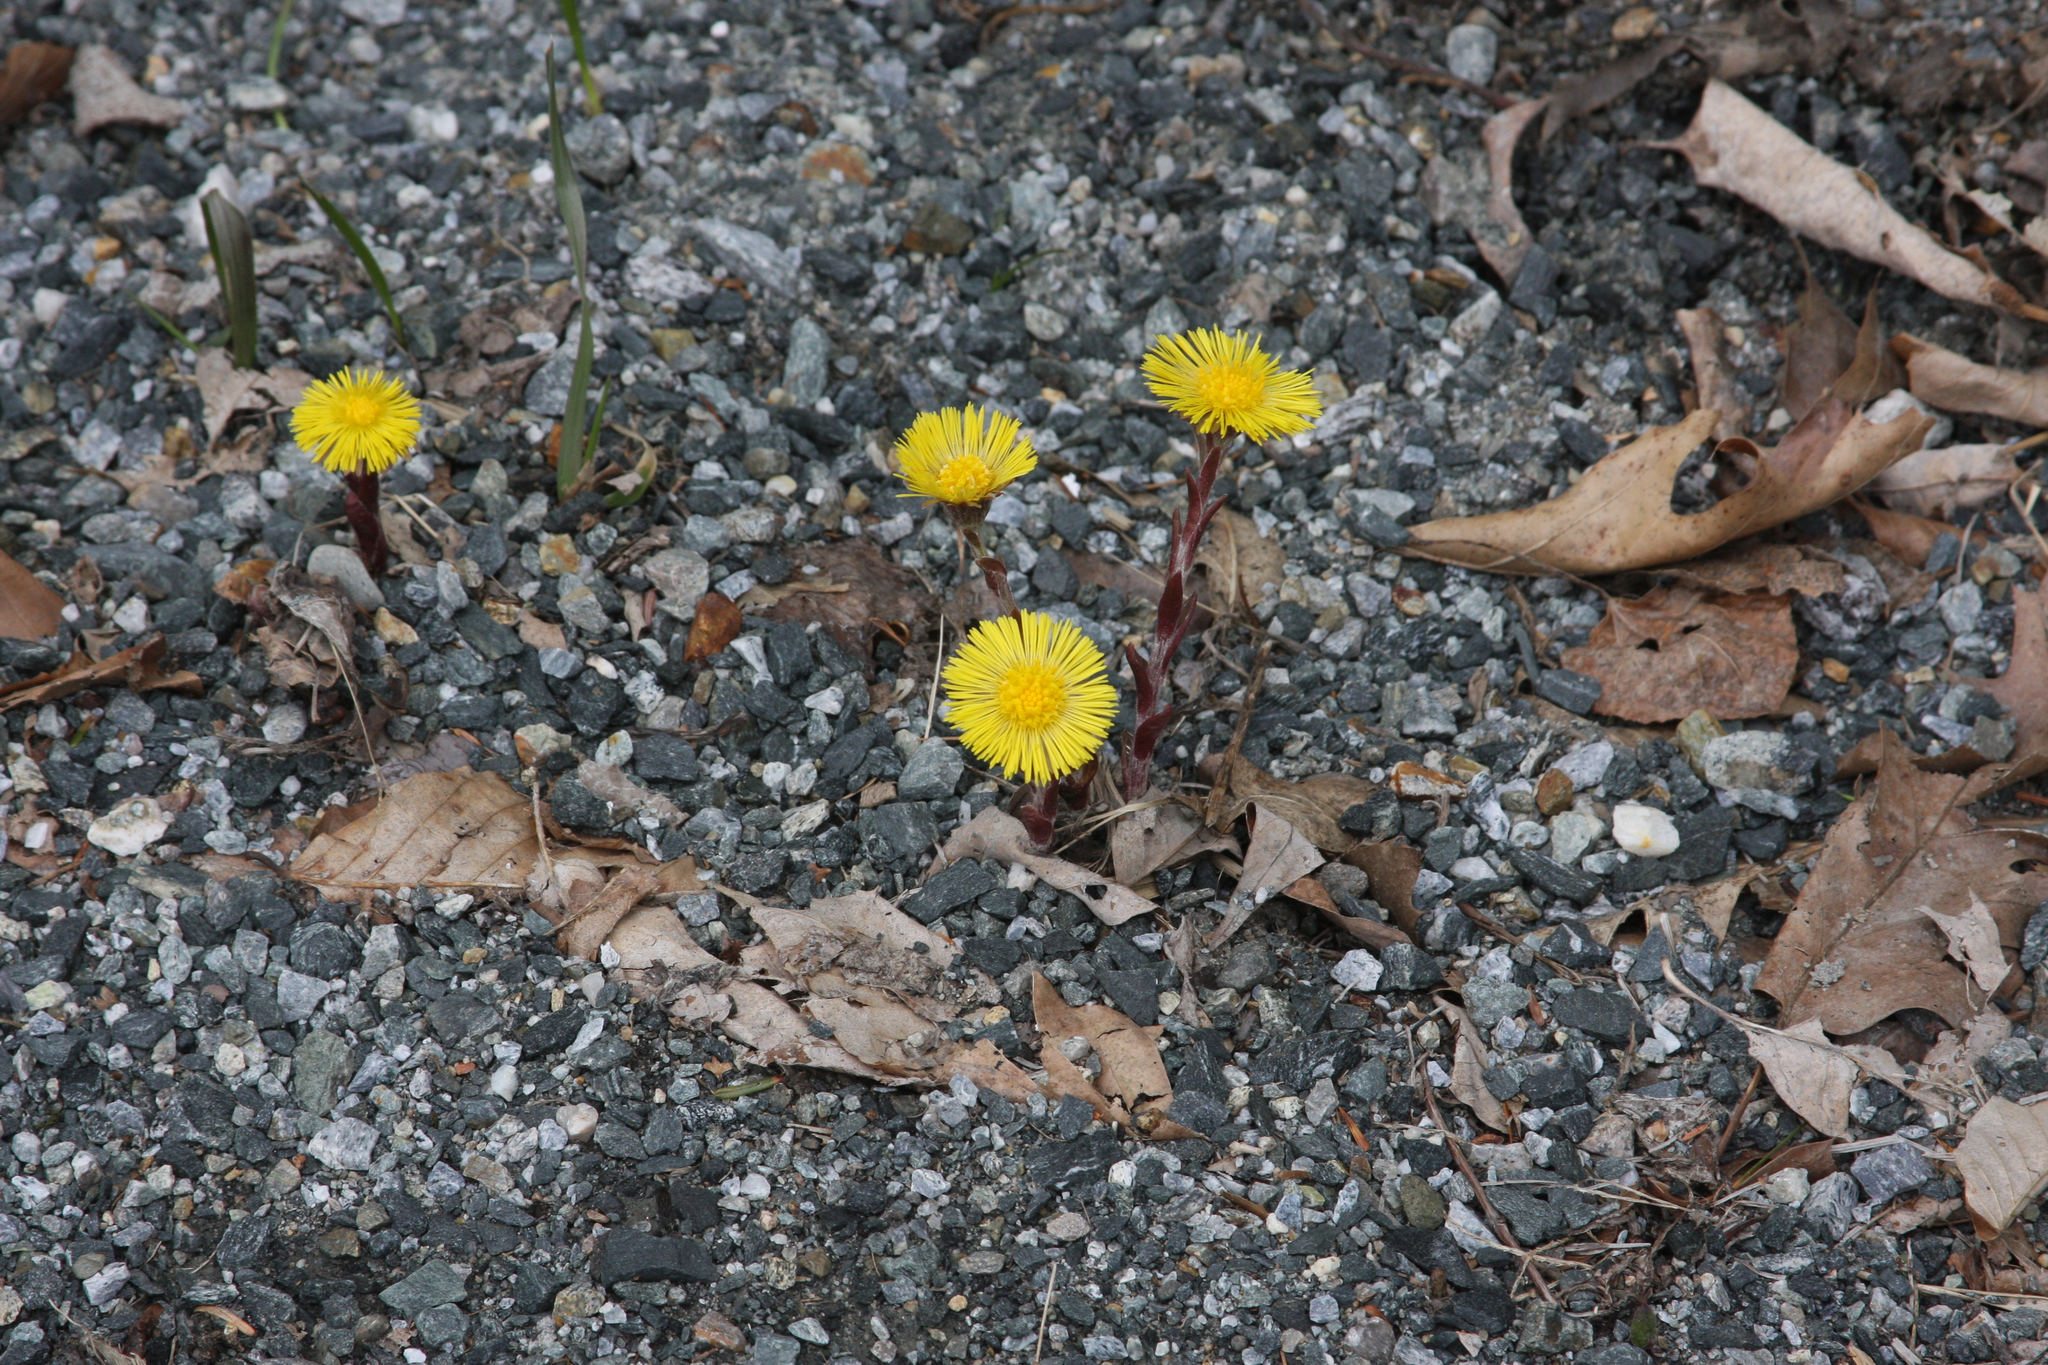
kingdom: Plantae
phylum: Tracheophyta
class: Magnoliopsida
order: Asterales
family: Asteraceae
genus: Tussilago
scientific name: Tussilago farfara
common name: Coltsfoot
